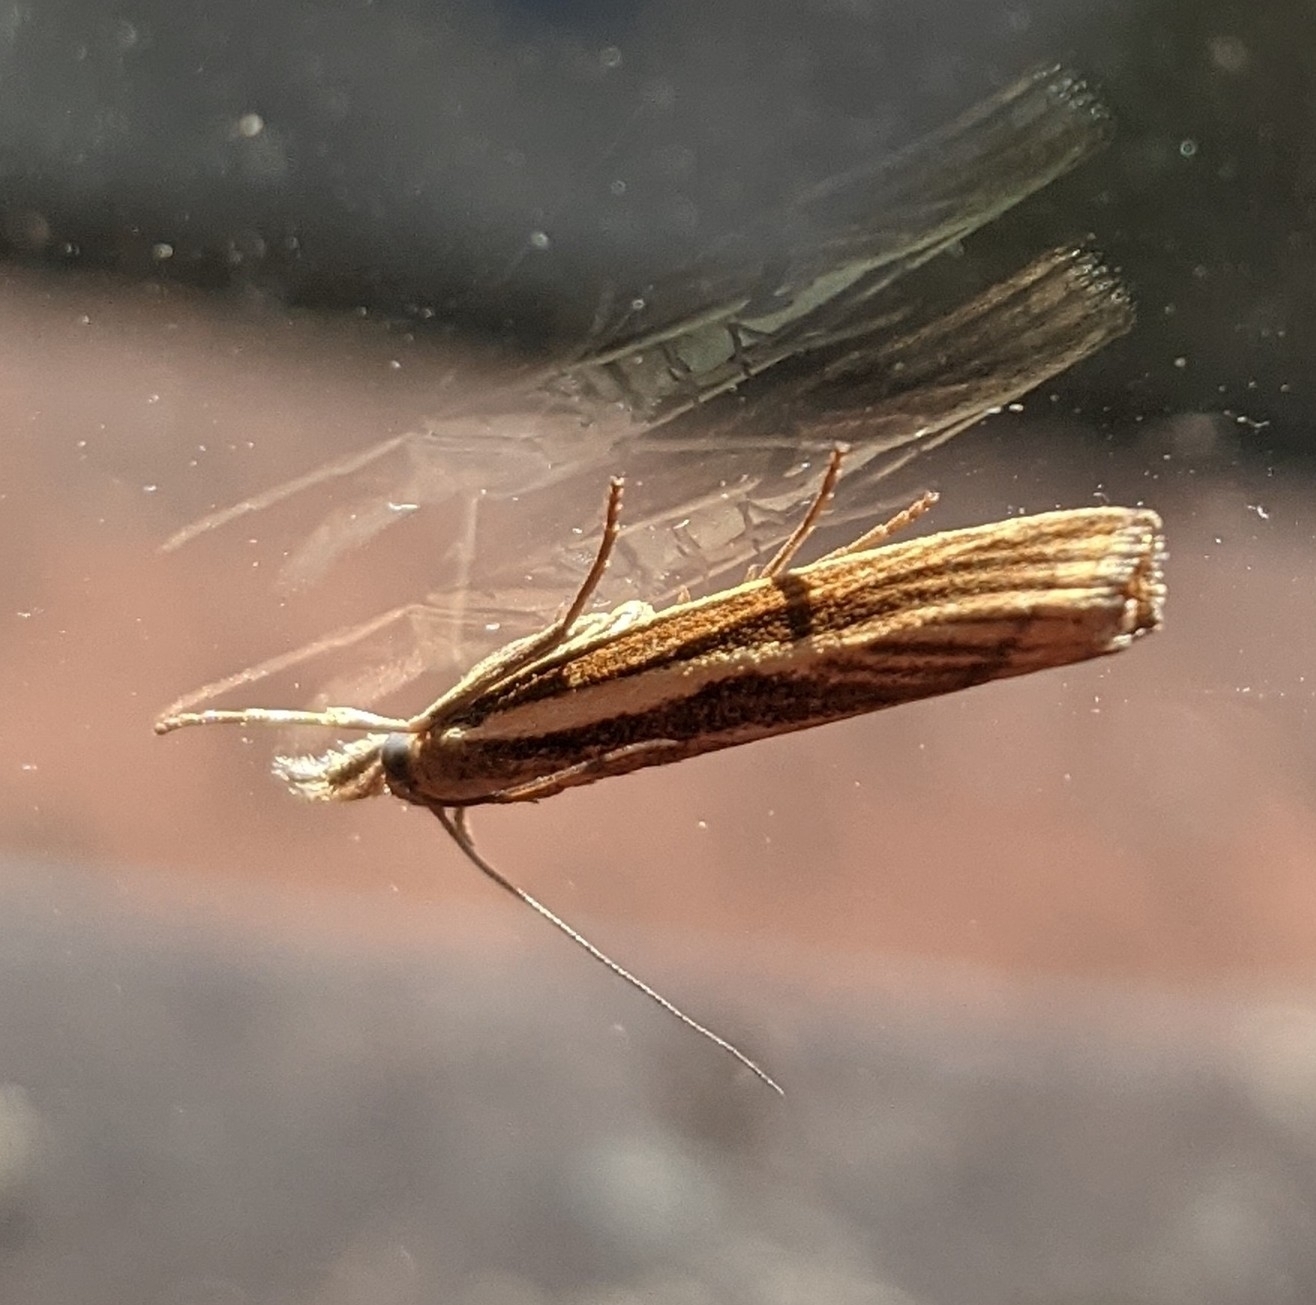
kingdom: Animalia
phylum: Arthropoda
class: Insecta
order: Lepidoptera
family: Crambidae
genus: Agriphila
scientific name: Agriphila tristellus
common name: Common grass-veneer
